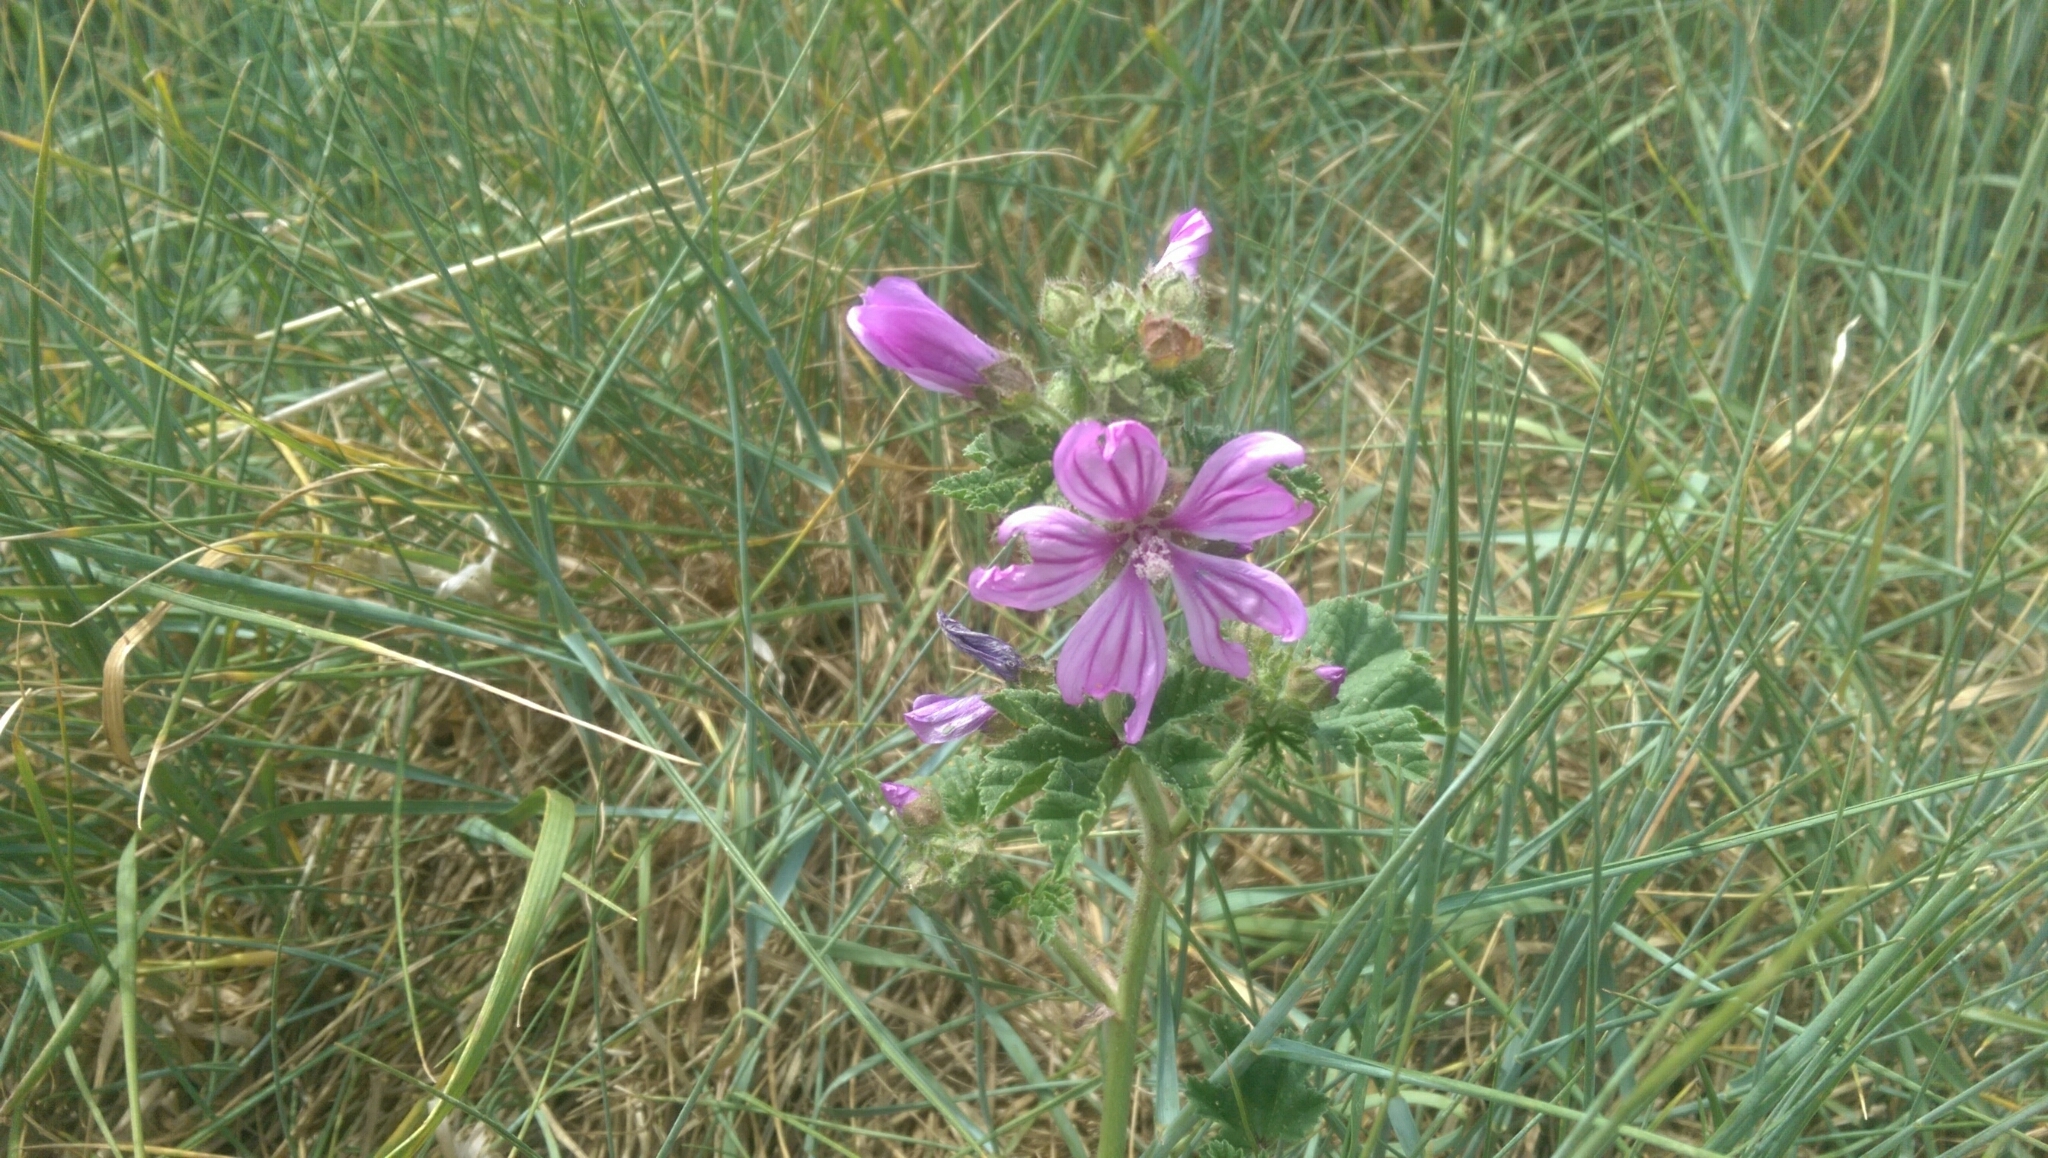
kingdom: Plantae
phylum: Tracheophyta
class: Magnoliopsida
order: Malvales
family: Malvaceae
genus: Malva
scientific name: Malva sylvestris
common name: Common mallow
